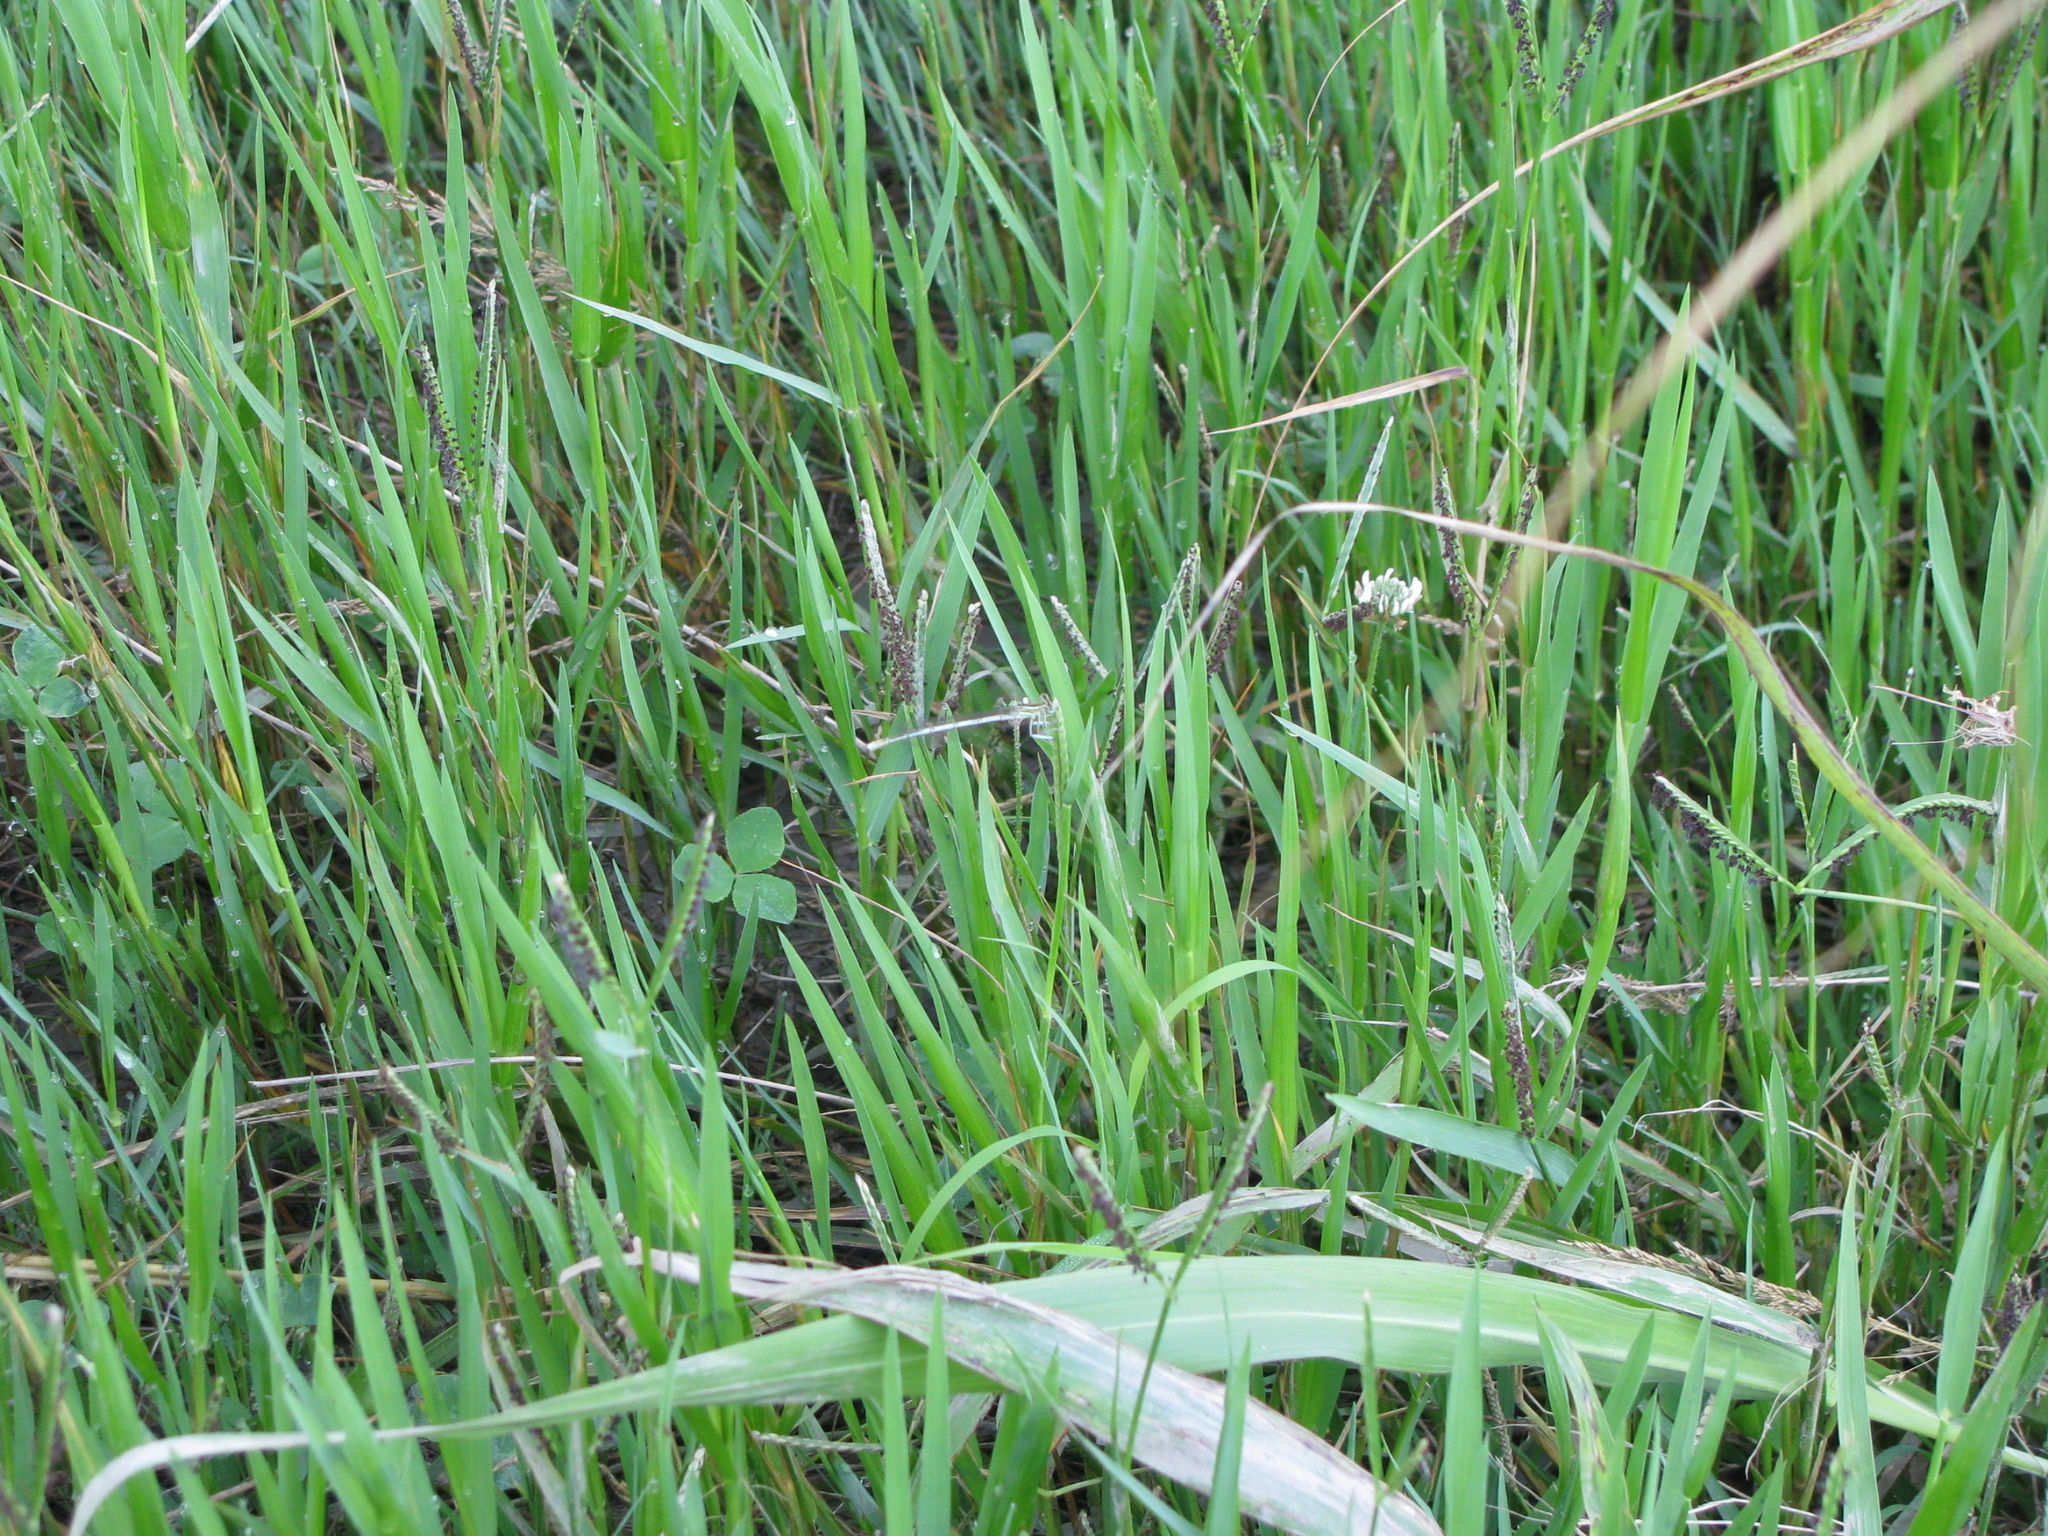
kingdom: Animalia
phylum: Arthropoda
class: Insecta
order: Odonata
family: Platycnemididae
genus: Platycnemis
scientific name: Platycnemis pennipes
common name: White-legged damselfly
